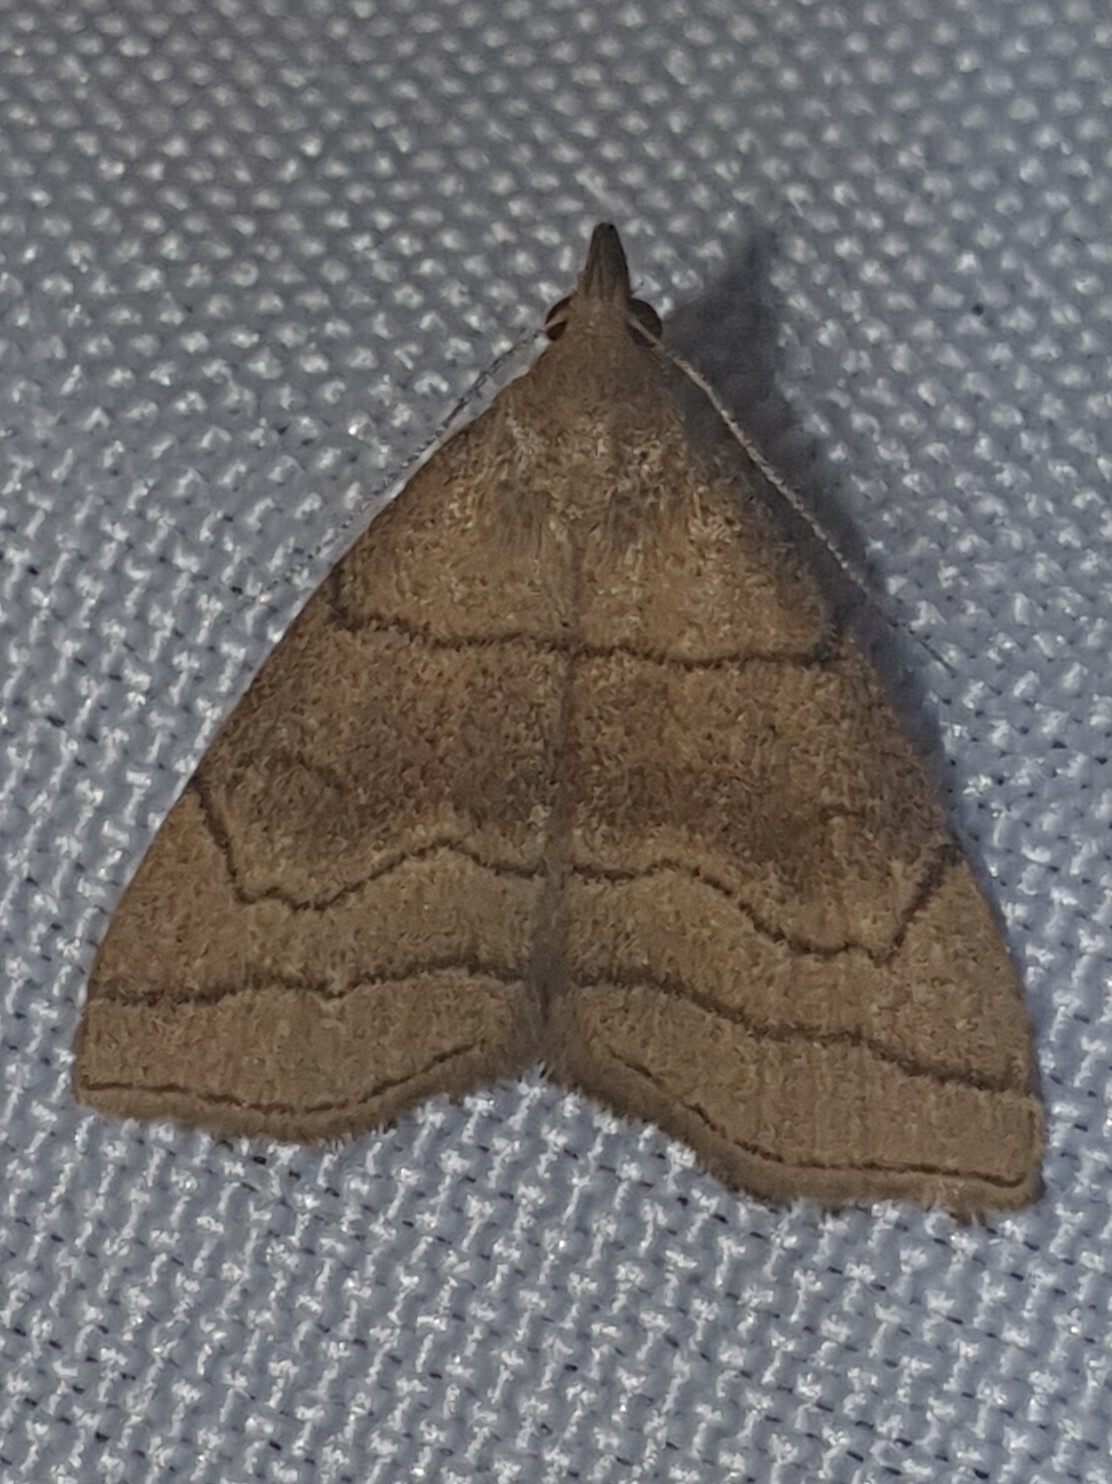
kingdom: Animalia
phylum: Arthropoda
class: Insecta
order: Lepidoptera
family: Erebidae
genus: Herminia
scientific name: Herminia tarsicrinalis
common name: Shaded fan-foot
